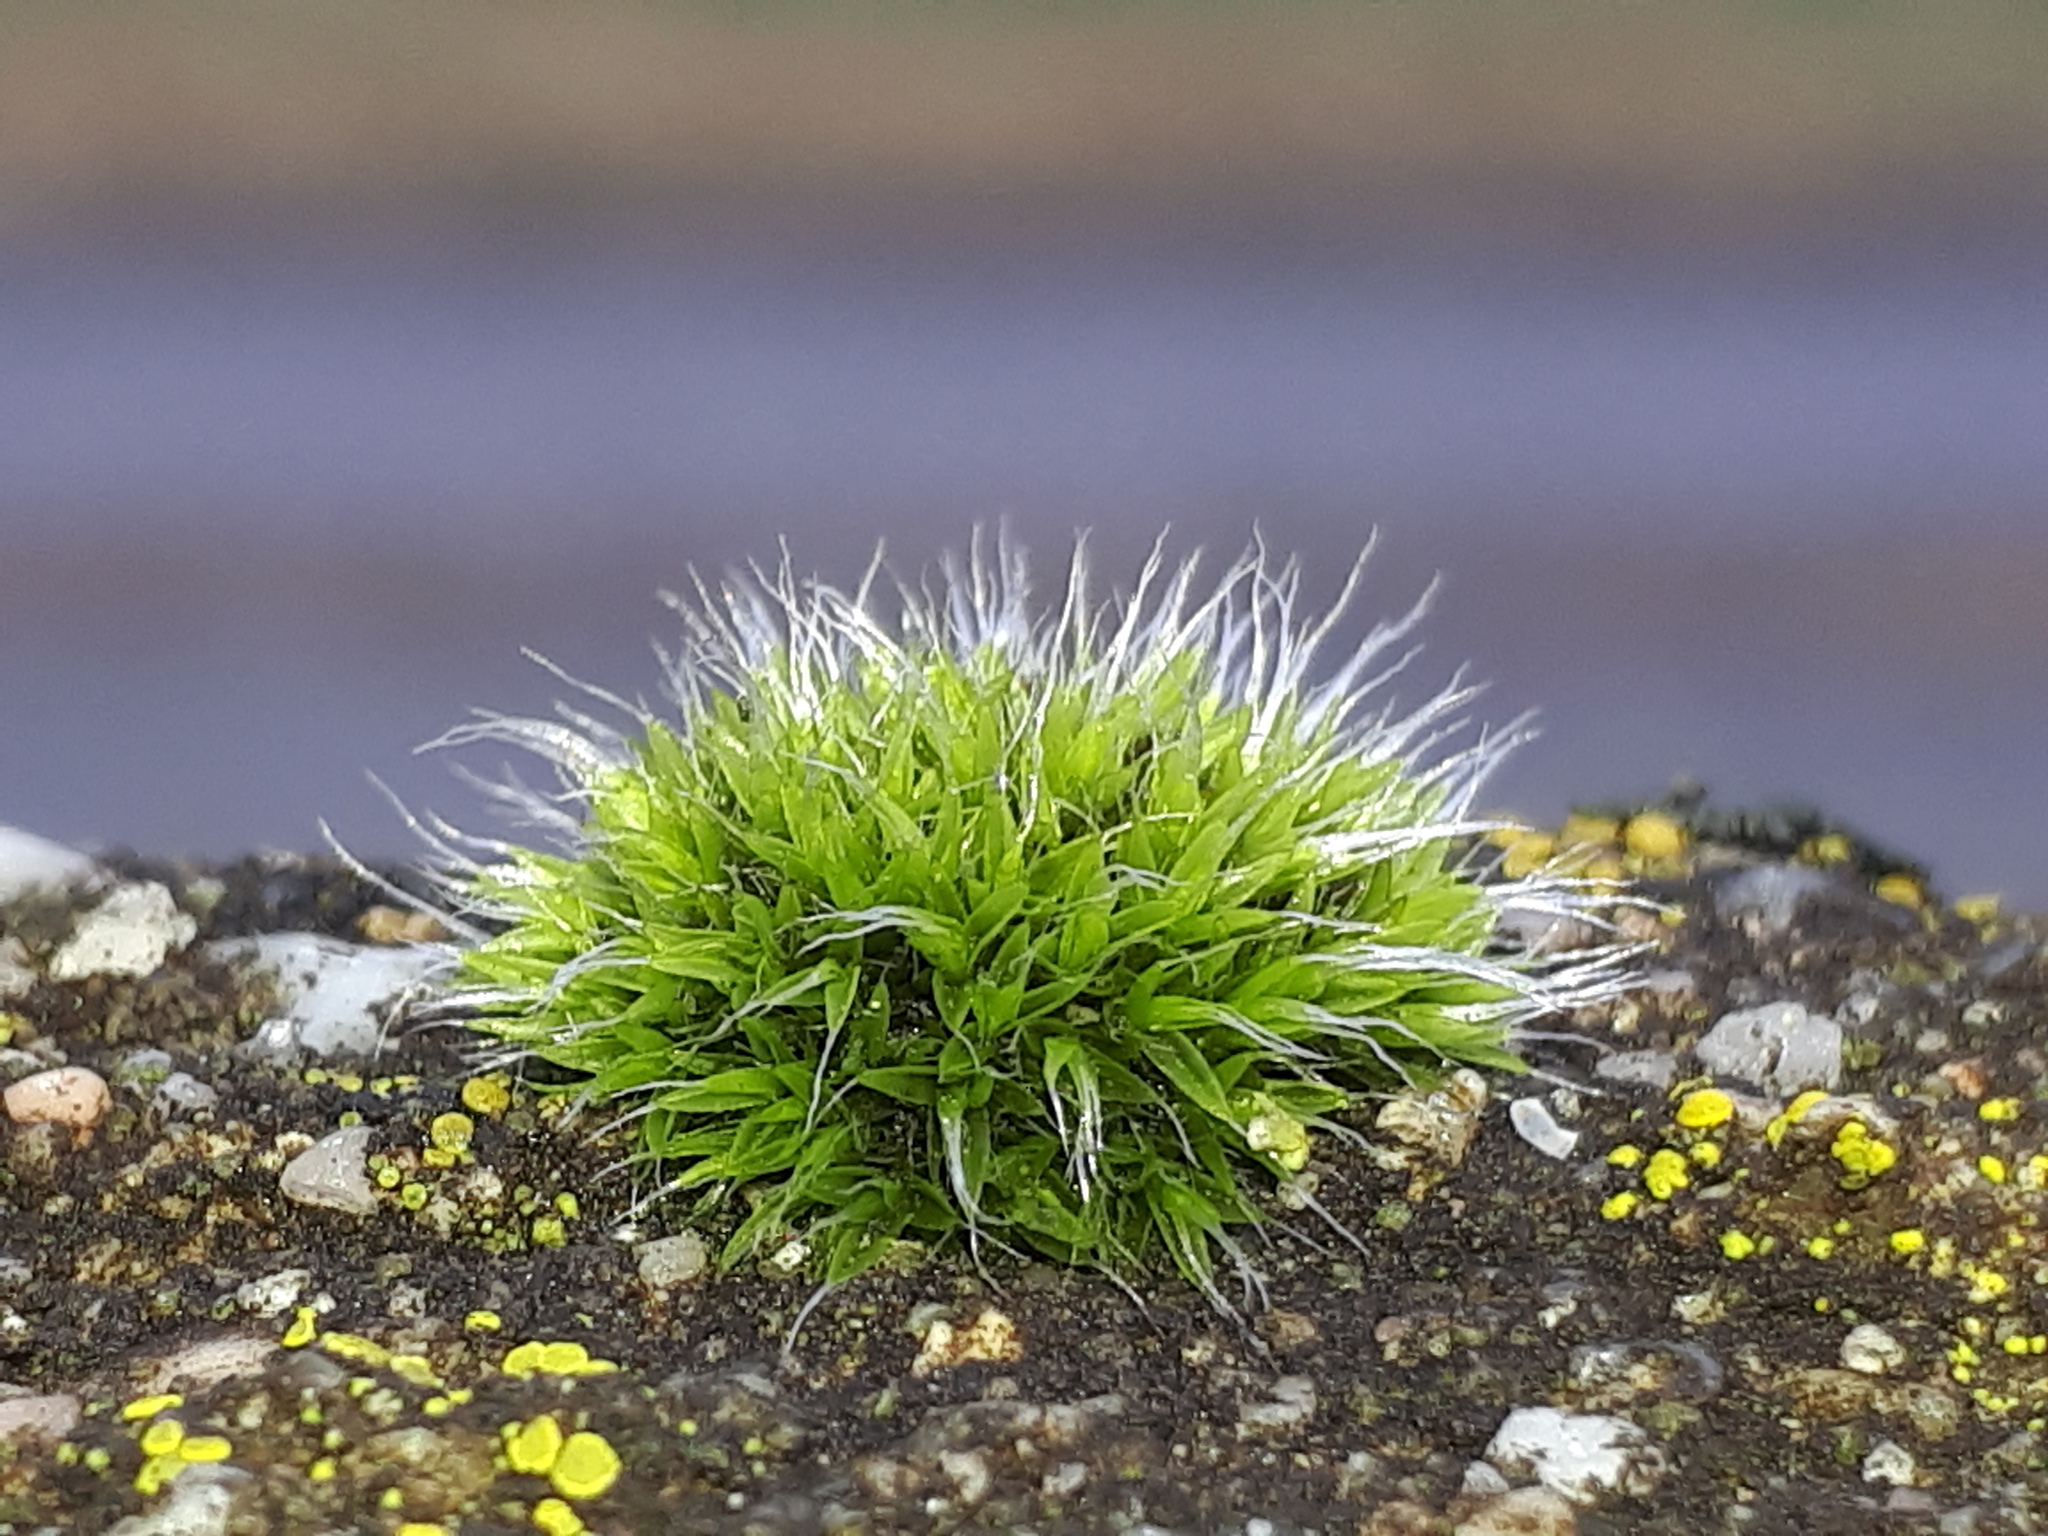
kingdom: Plantae
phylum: Bryophyta
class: Bryopsida
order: Grimmiales
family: Grimmiaceae
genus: Grimmia
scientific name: Grimmia pulvinata
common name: Grey-cushioned grimmia
